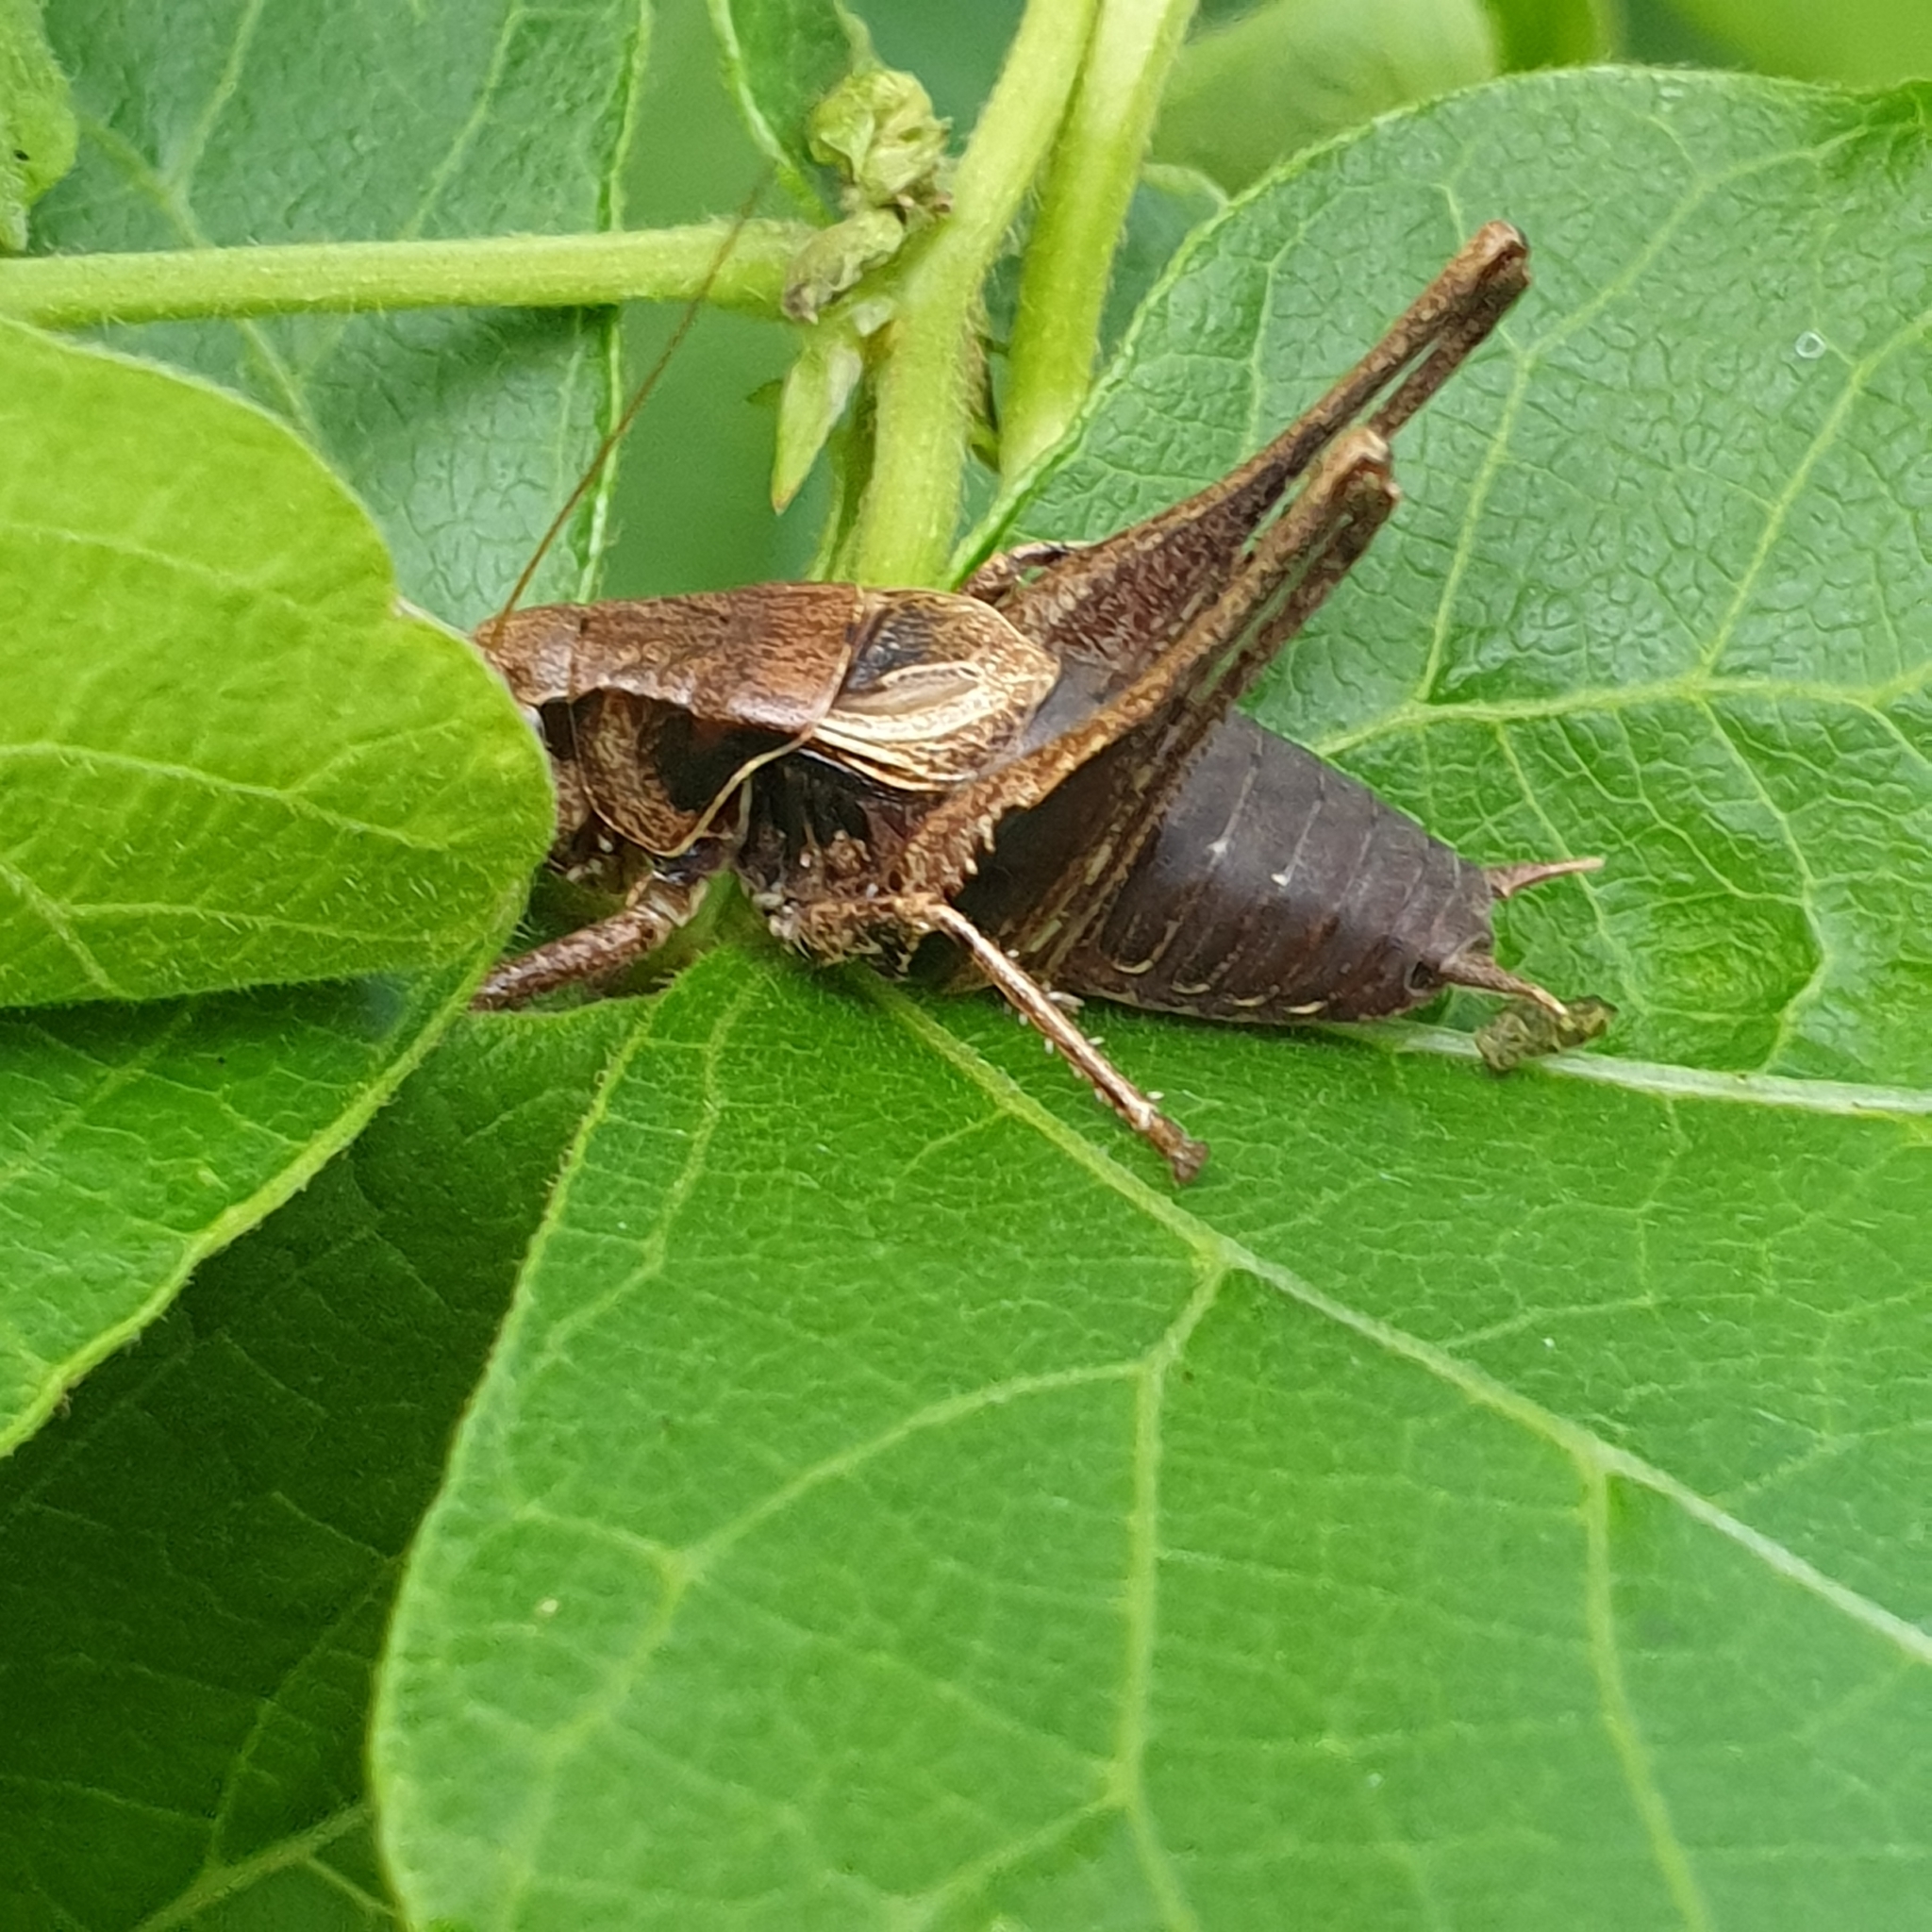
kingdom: Animalia
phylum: Arthropoda
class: Insecta
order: Orthoptera
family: Tettigoniidae
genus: Pholidoptera
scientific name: Pholidoptera griseoaptera
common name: Dark bush-cricket
